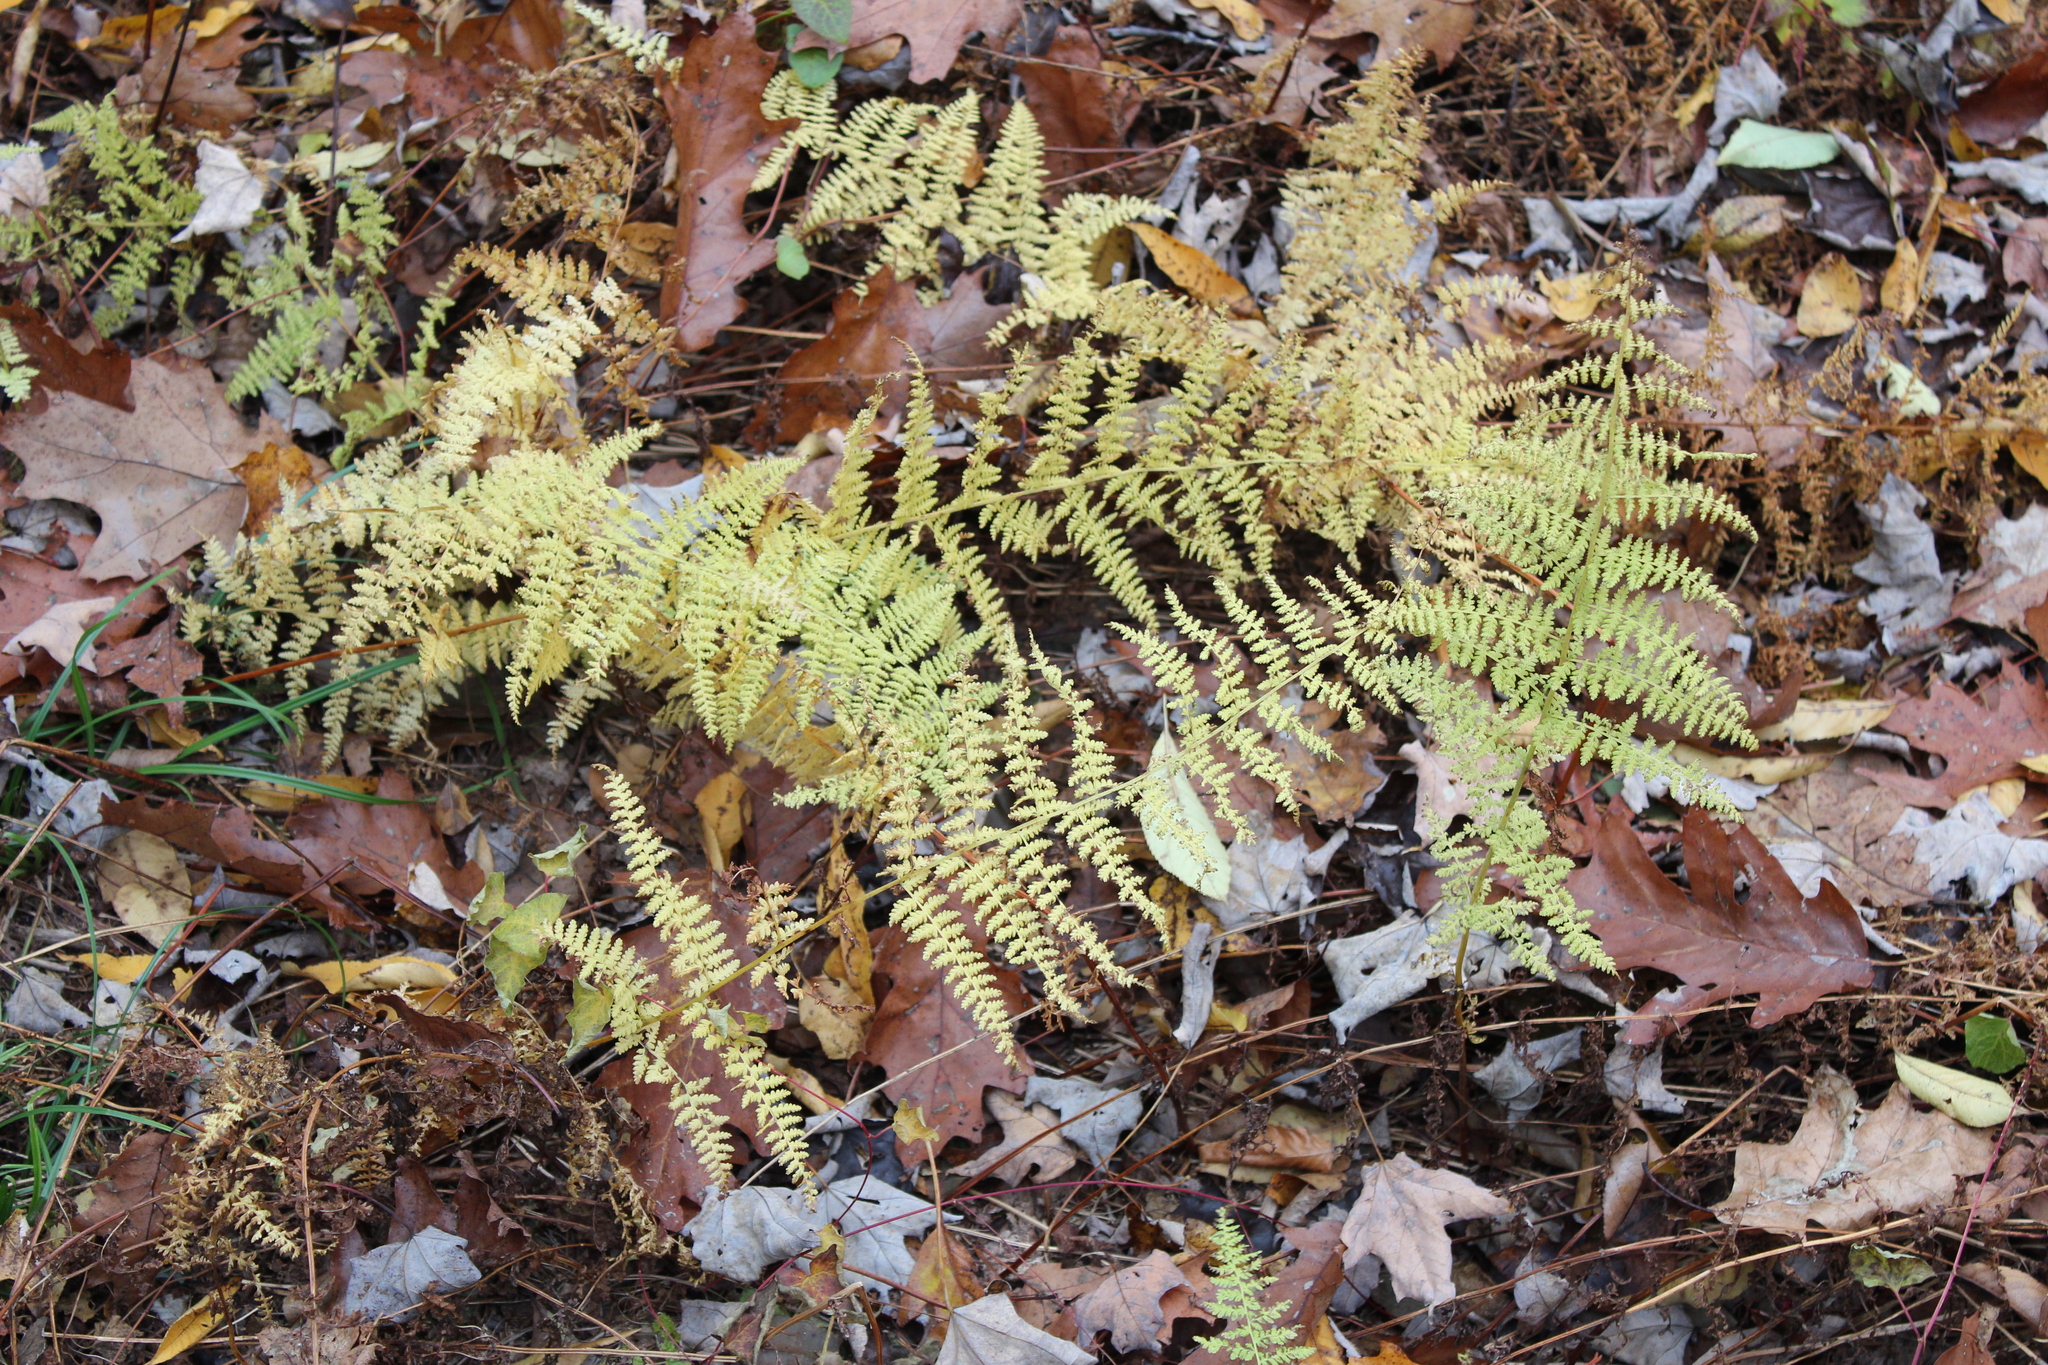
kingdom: Plantae
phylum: Tracheophyta
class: Polypodiopsida
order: Polypodiales
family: Dennstaedtiaceae
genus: Sitobolium
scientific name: Sitobolium punctilobum
